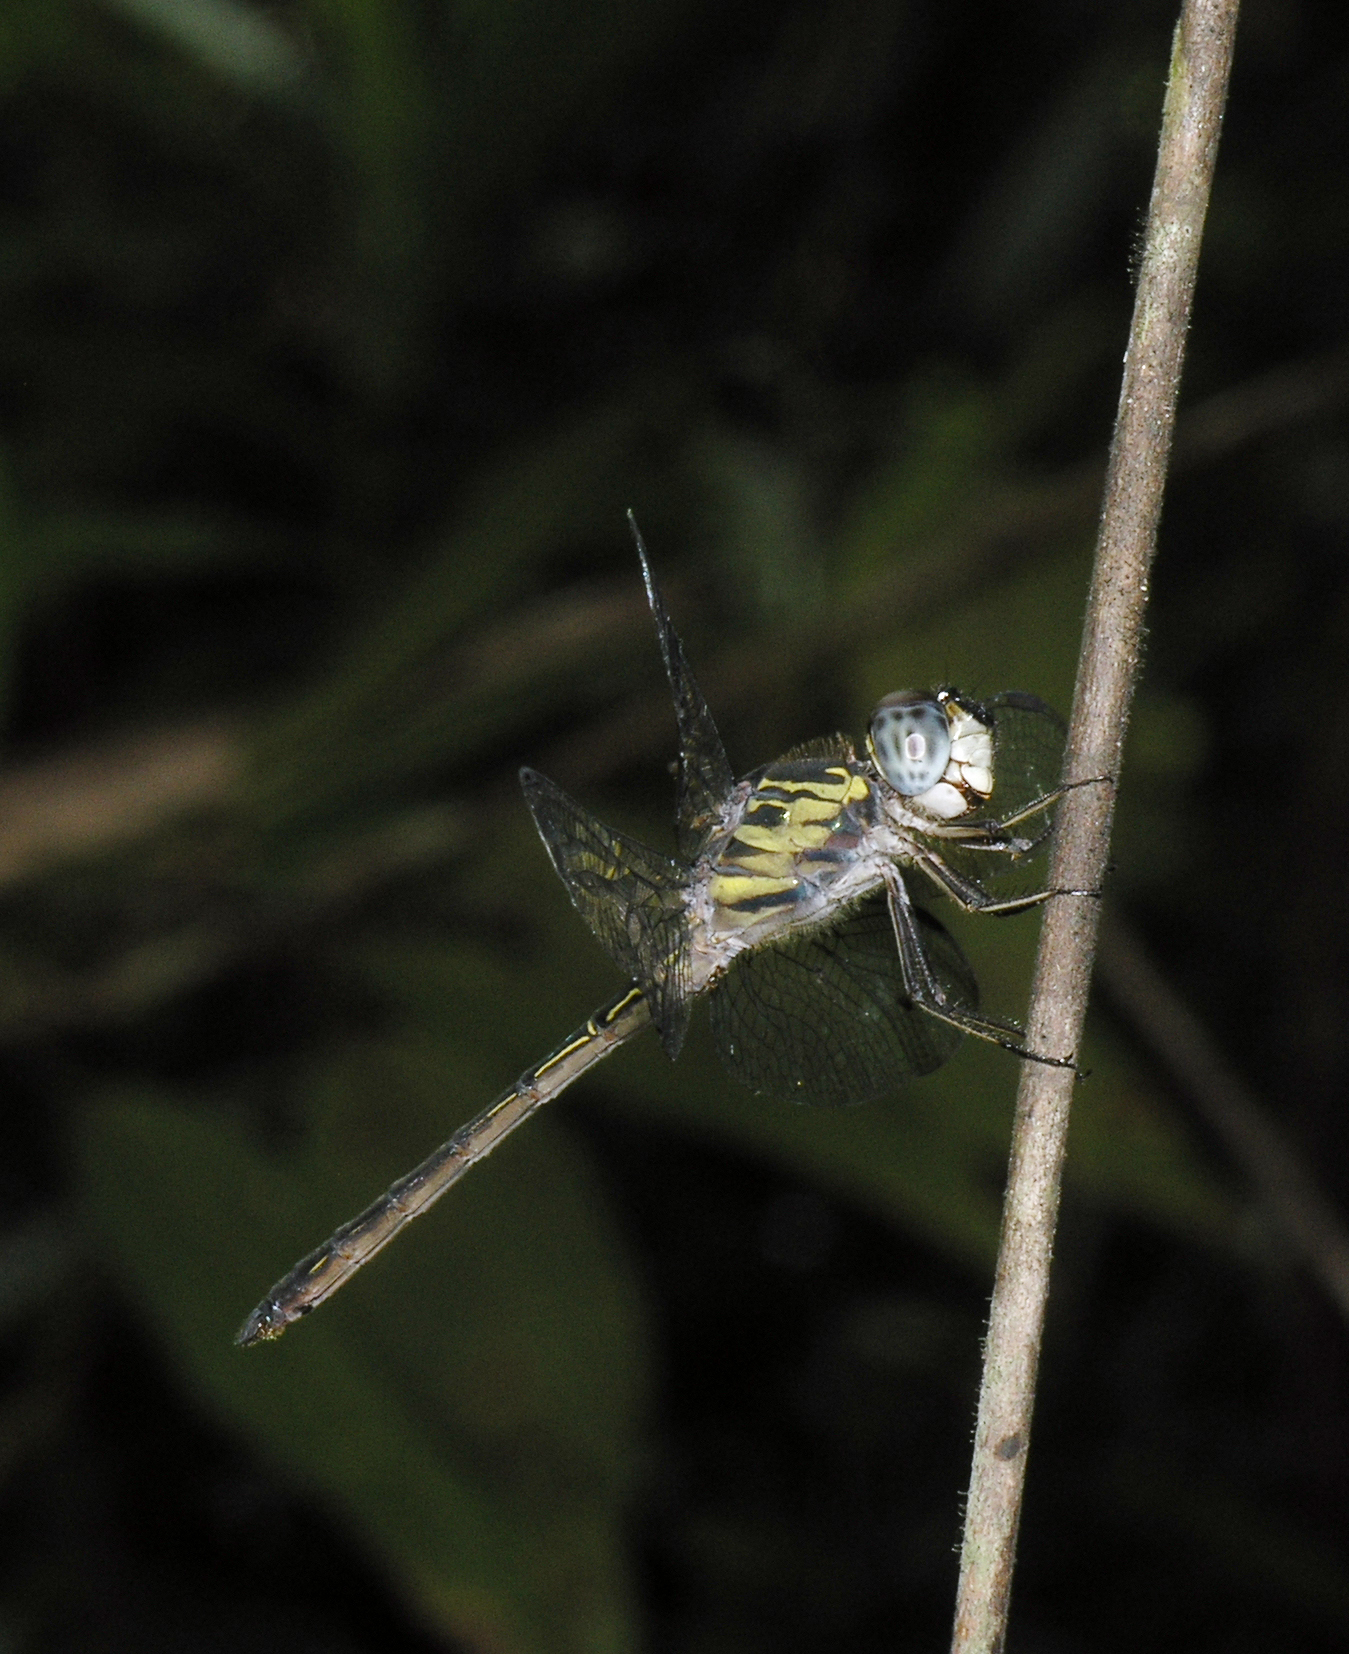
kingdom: Animalia
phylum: Arthropoda
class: Insecta
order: Odonata
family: Libellulidae
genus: Cratilla
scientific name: Cratilla lineata
